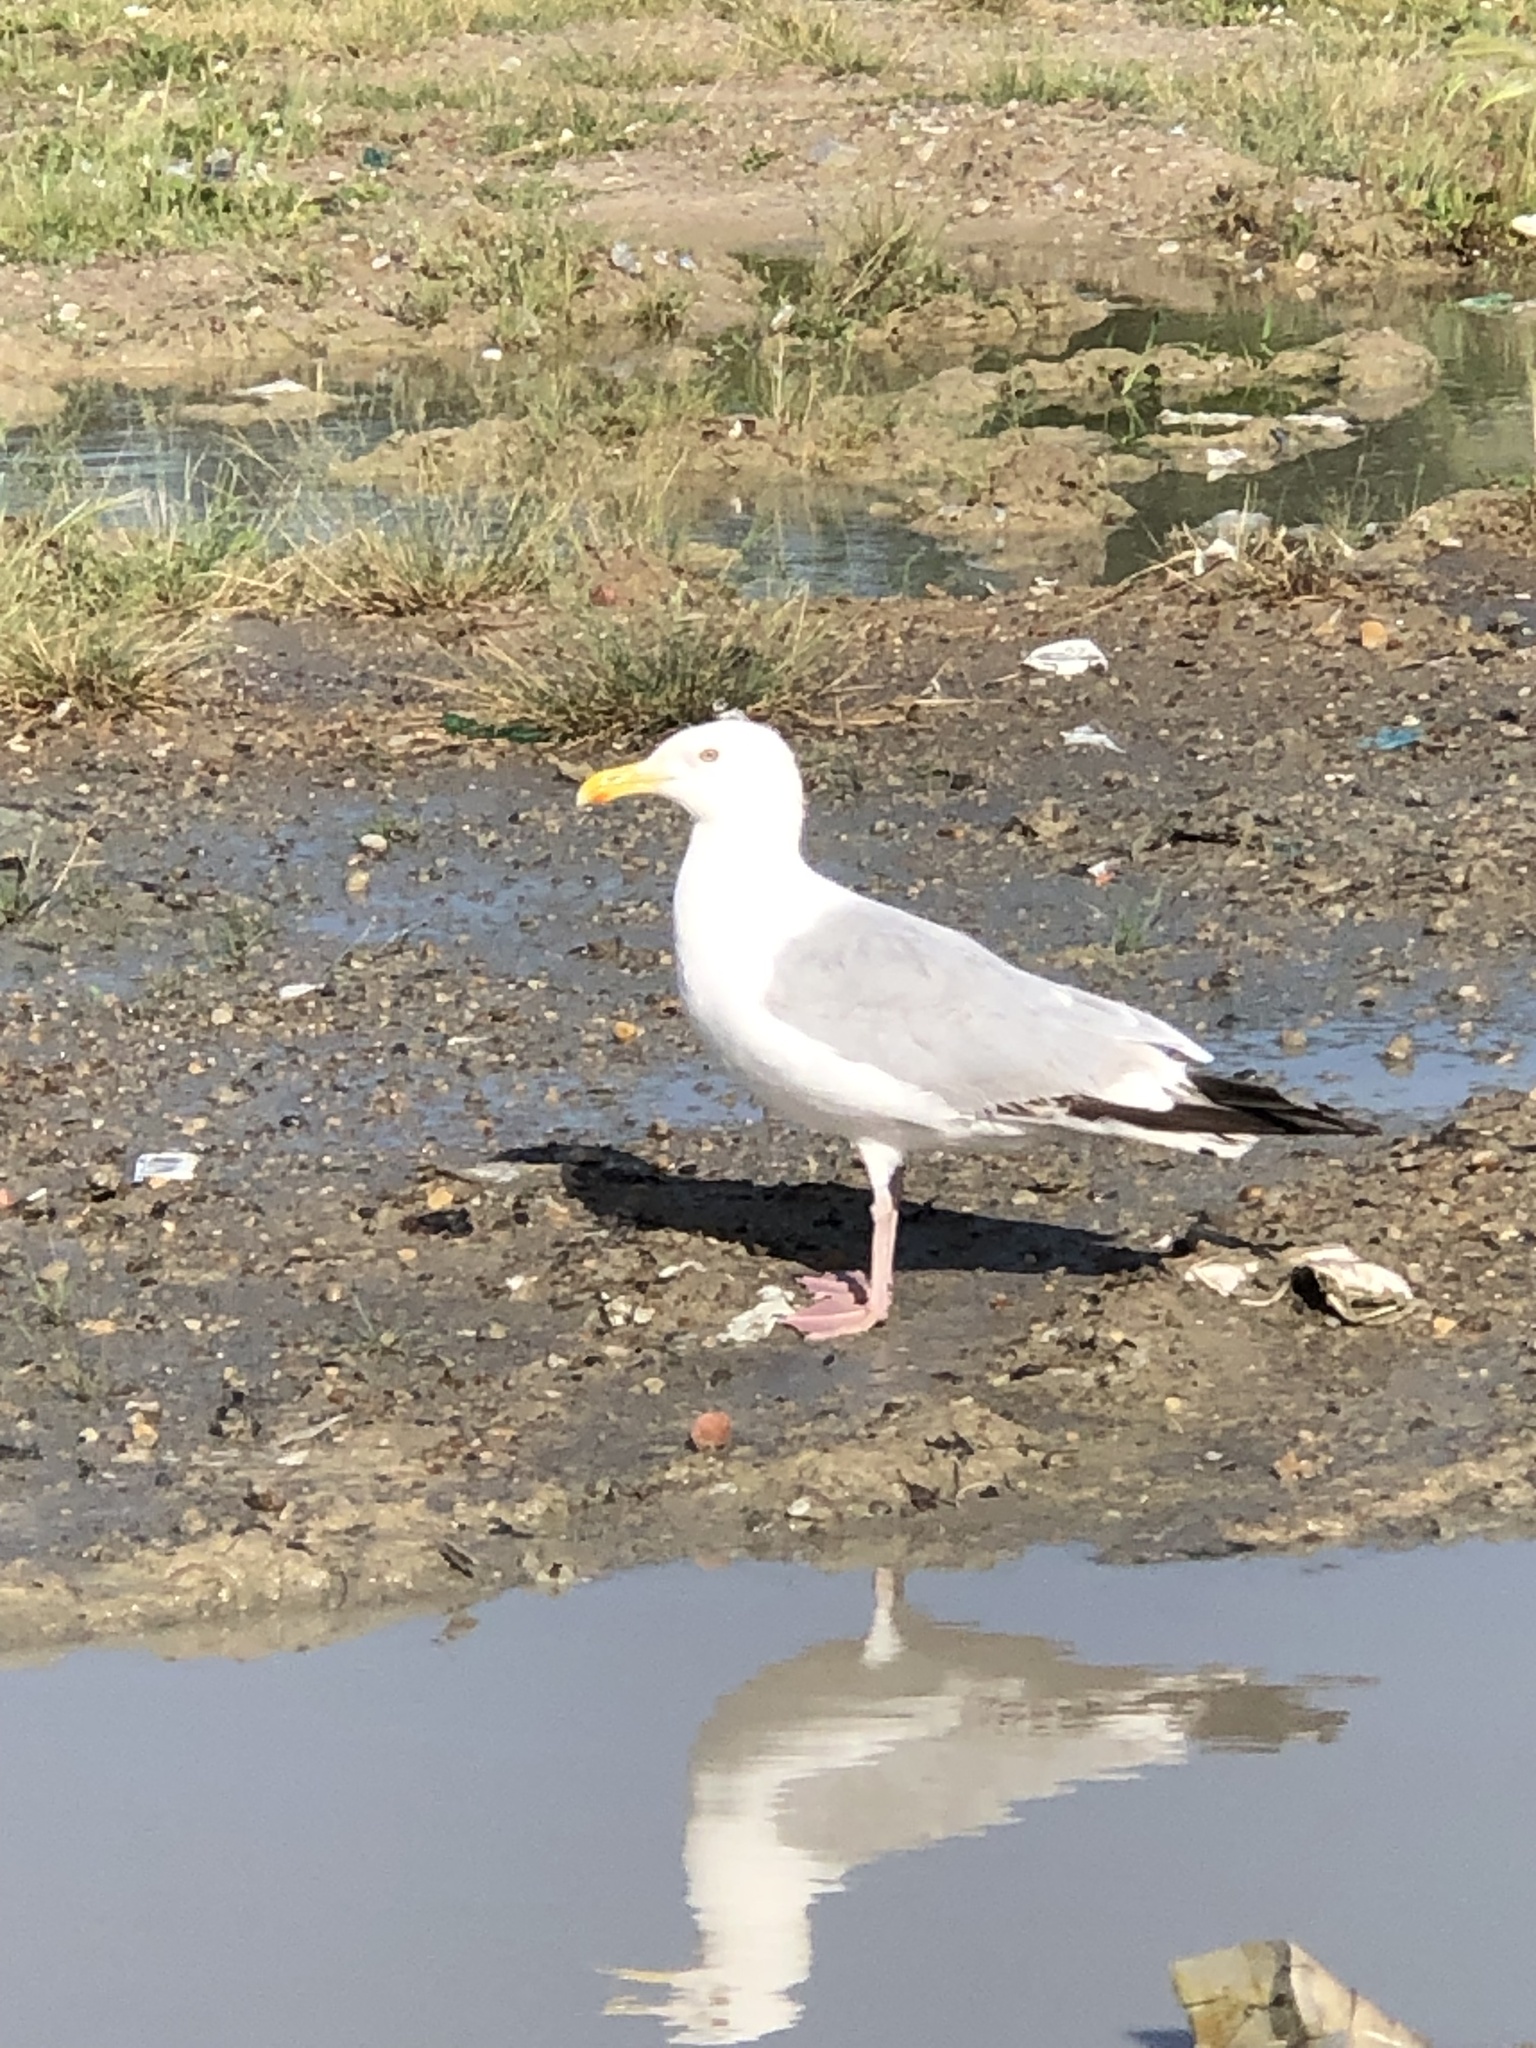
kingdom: Animalia
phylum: Chordata
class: Aves
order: Charadriiformes
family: Laridae
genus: Larus
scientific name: Larus argentatus
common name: Herring gull
